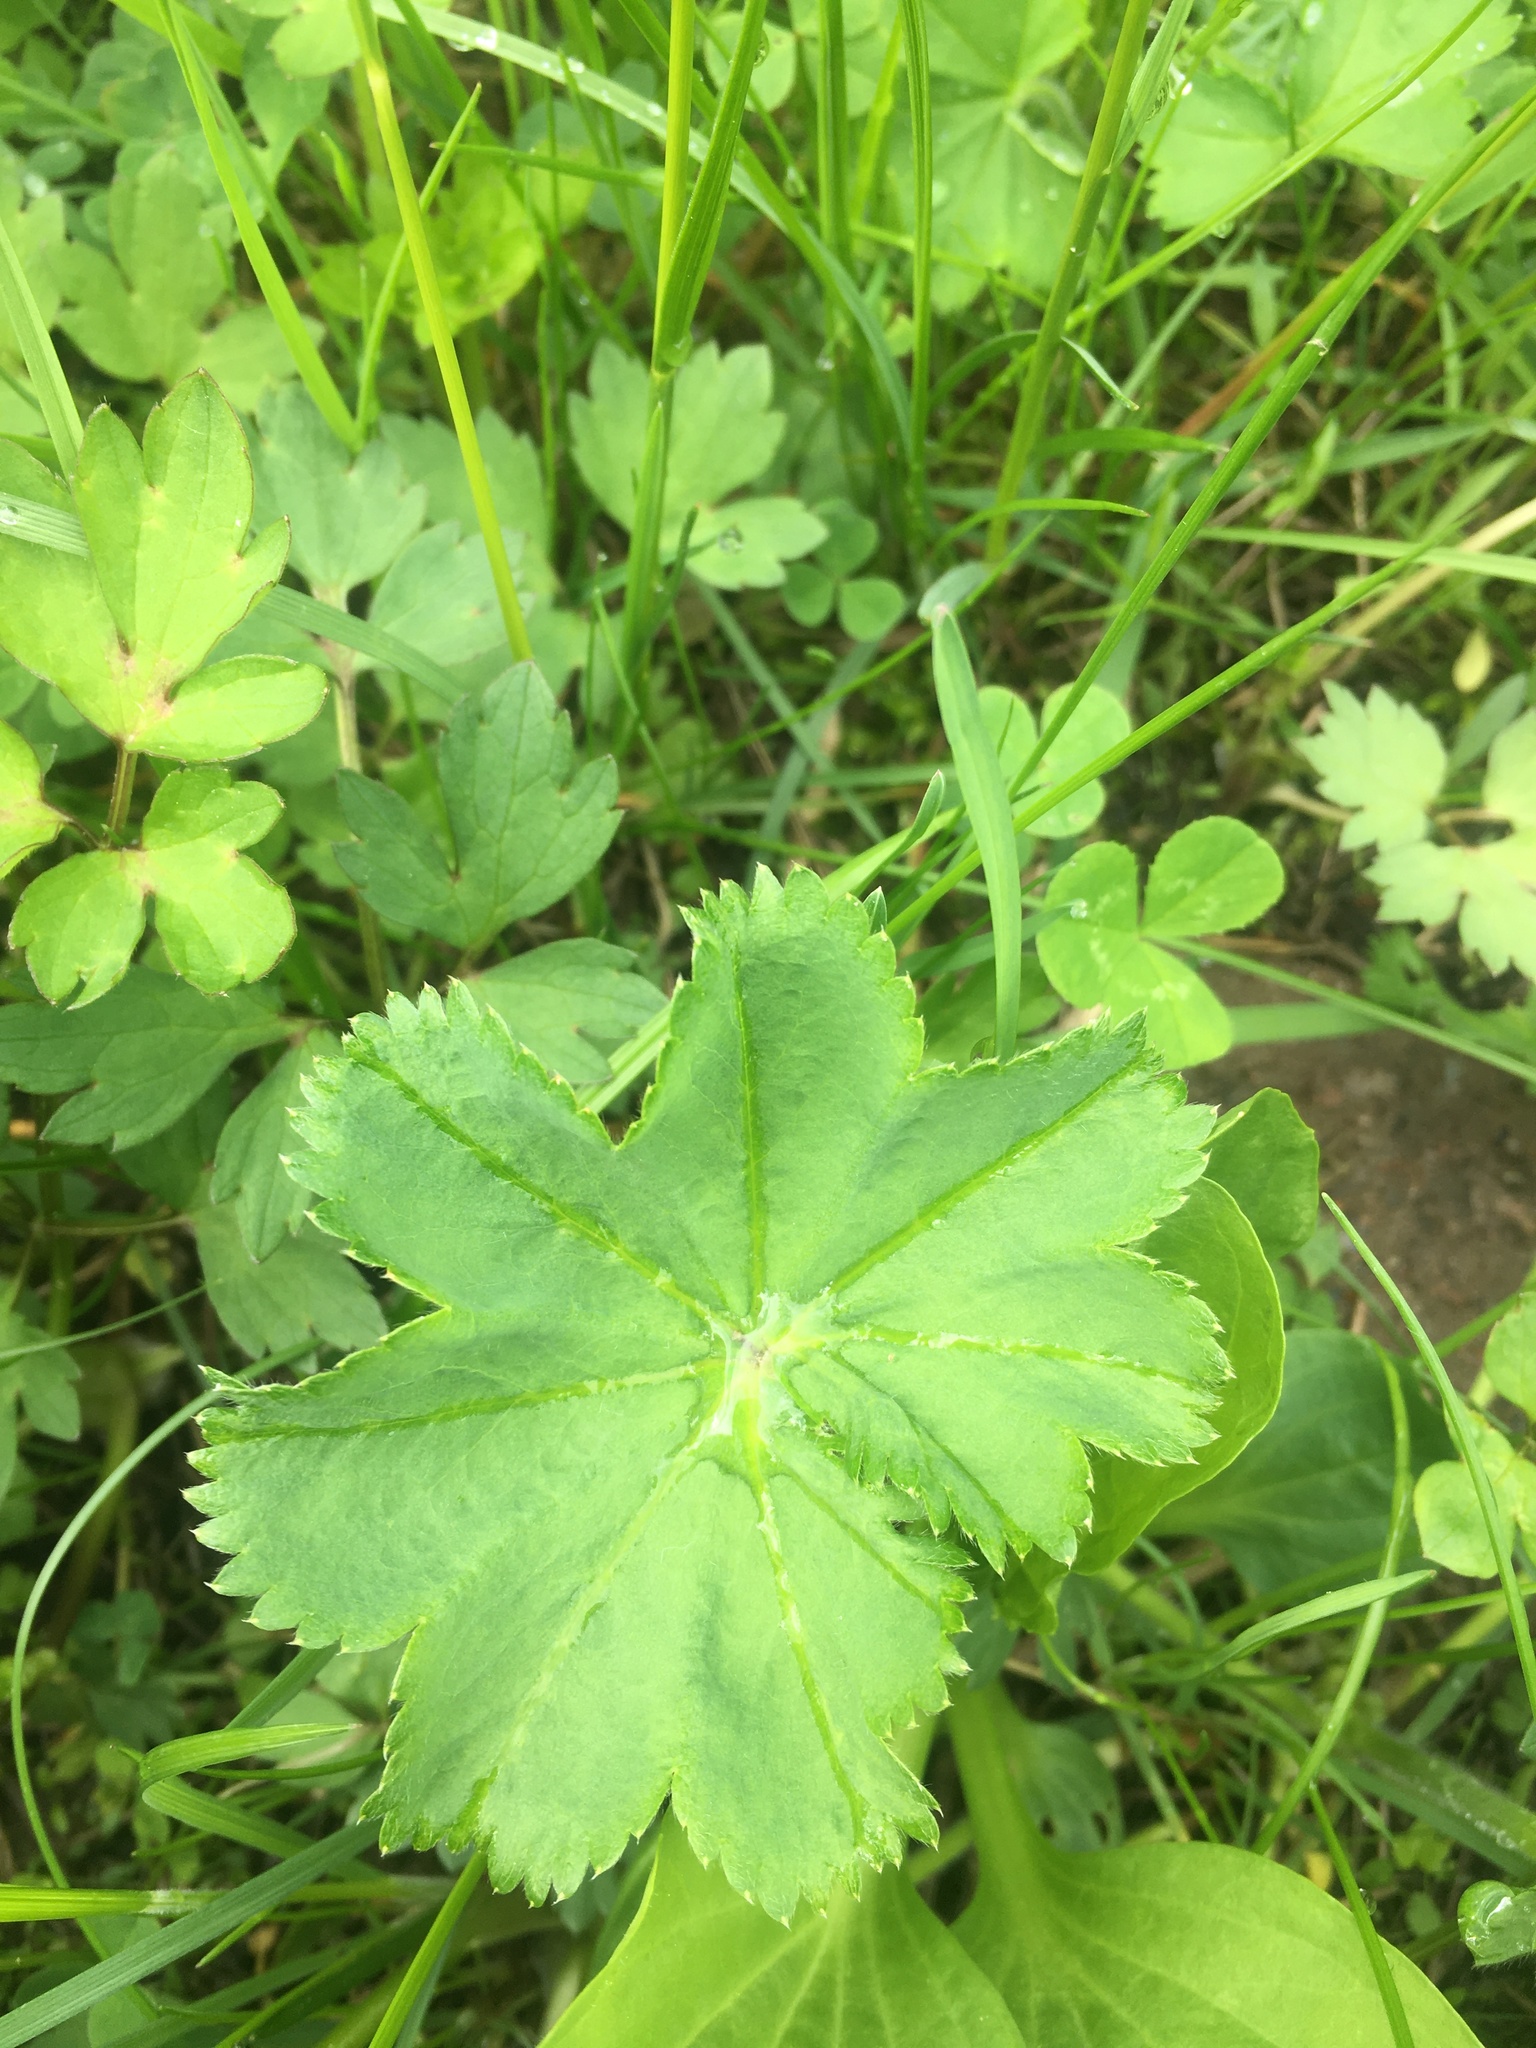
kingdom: Plantae
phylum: Tracheophyta
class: Magnoliopsida
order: Rosales
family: Rosaceae
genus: Alchemilla
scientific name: Alchemilla
